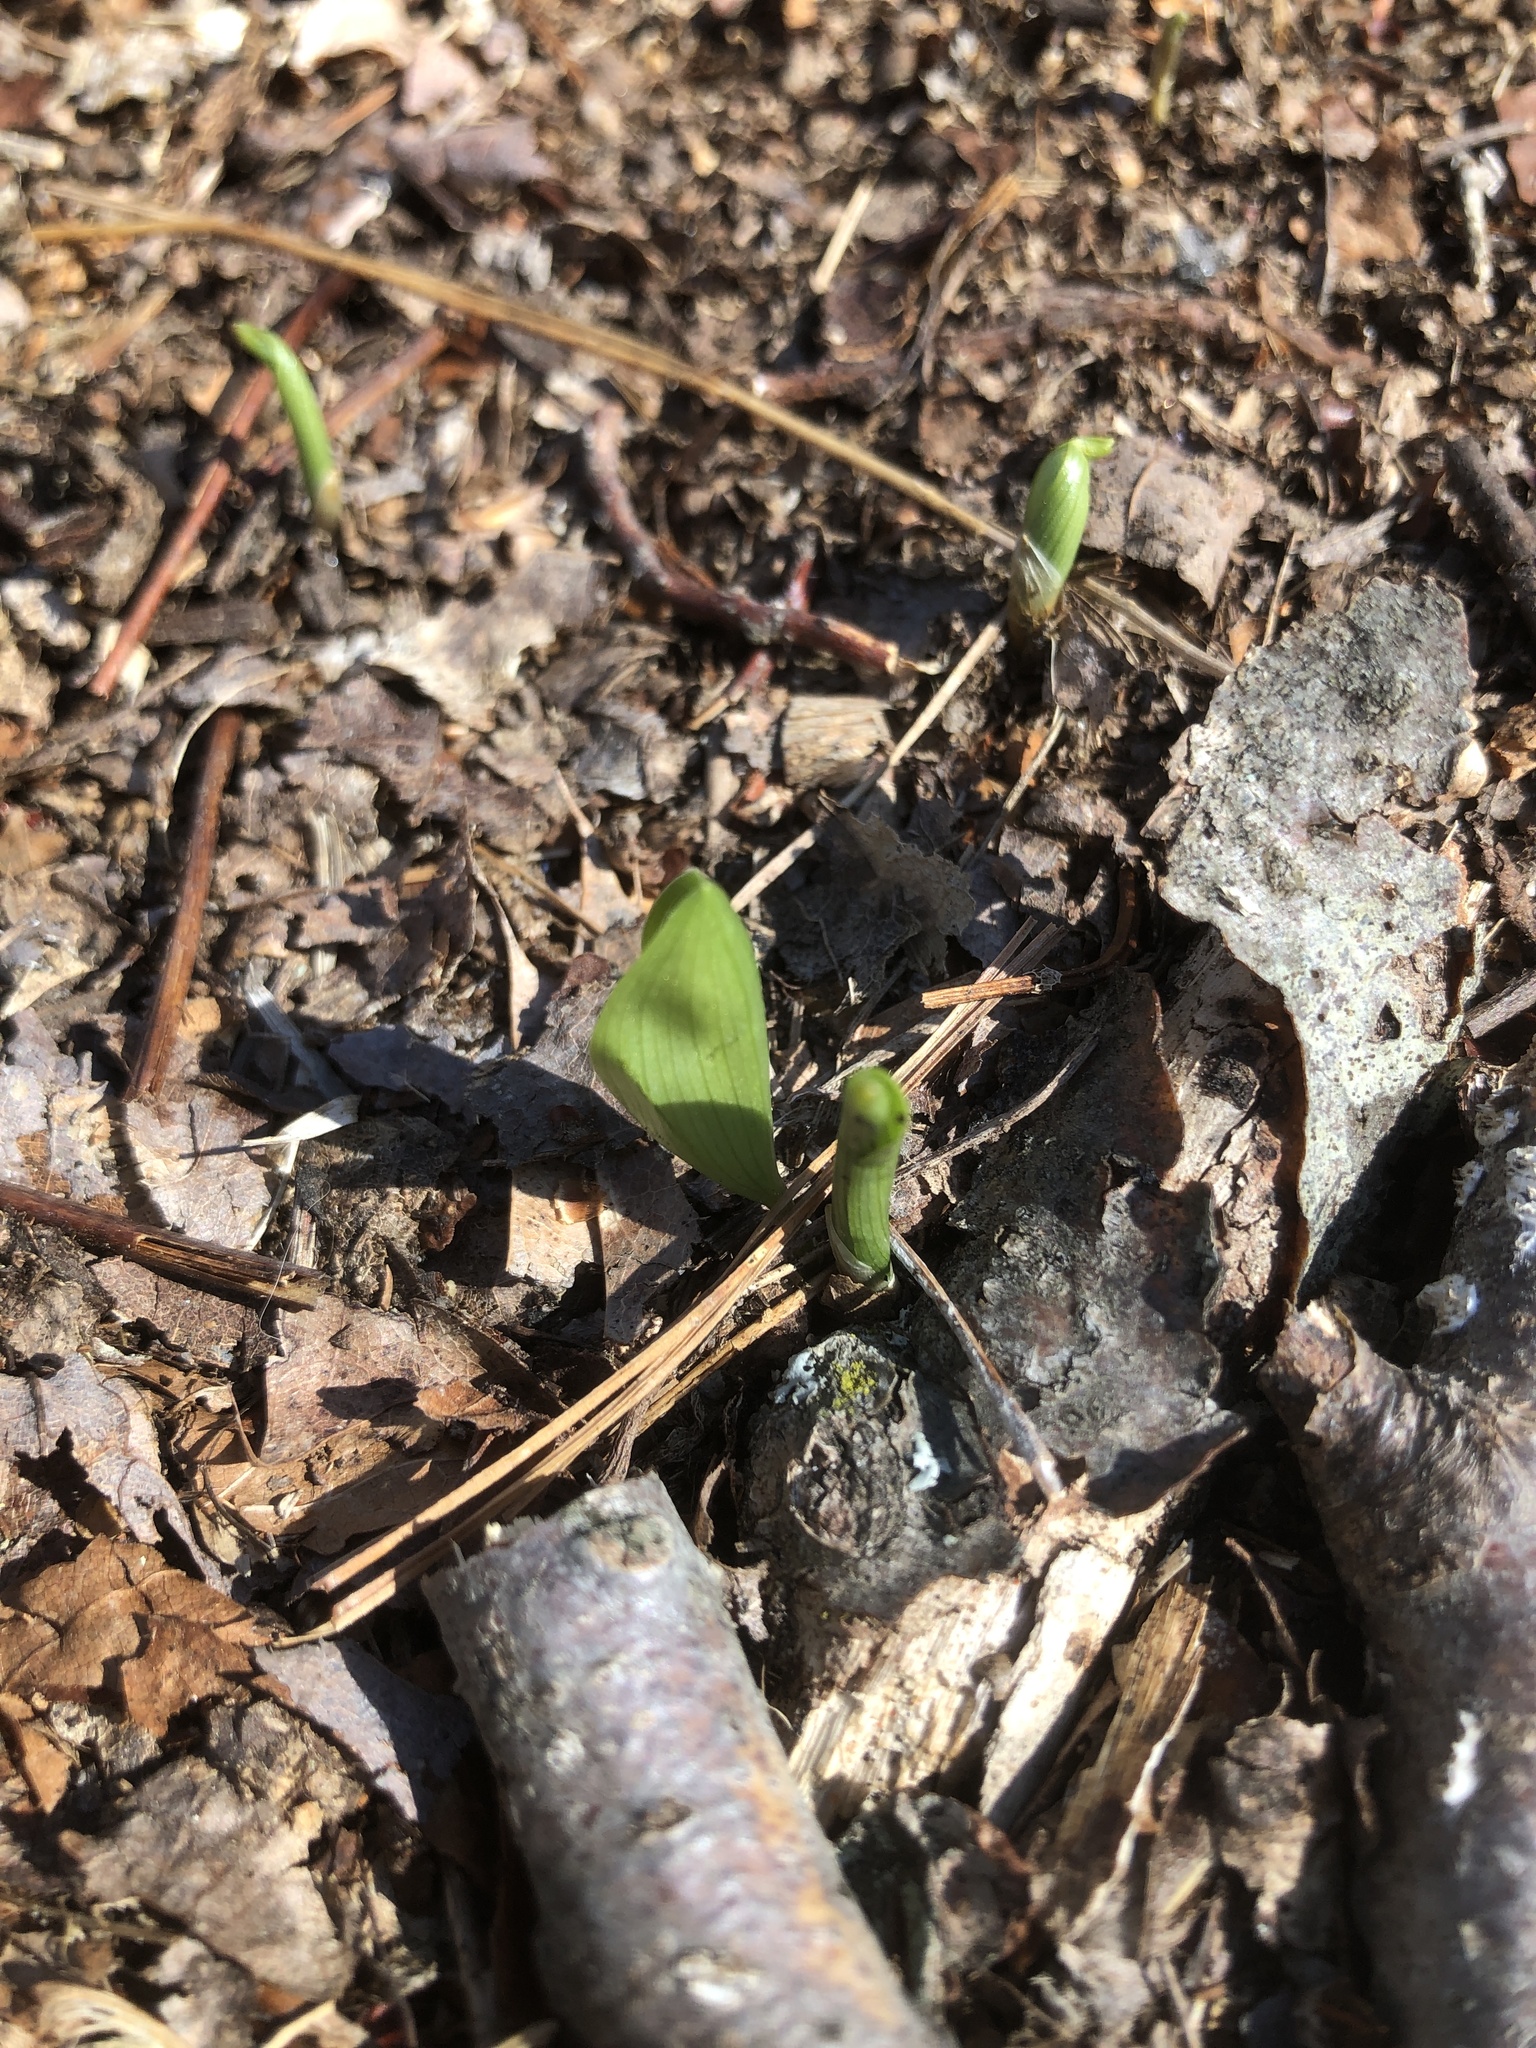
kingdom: Plantae
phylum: Tracheophyta
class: Liliopsida
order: Asparagales
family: Asparagaceae
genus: Maianthemum
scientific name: Maianthemum canadense
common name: False lily-of-the-valley
